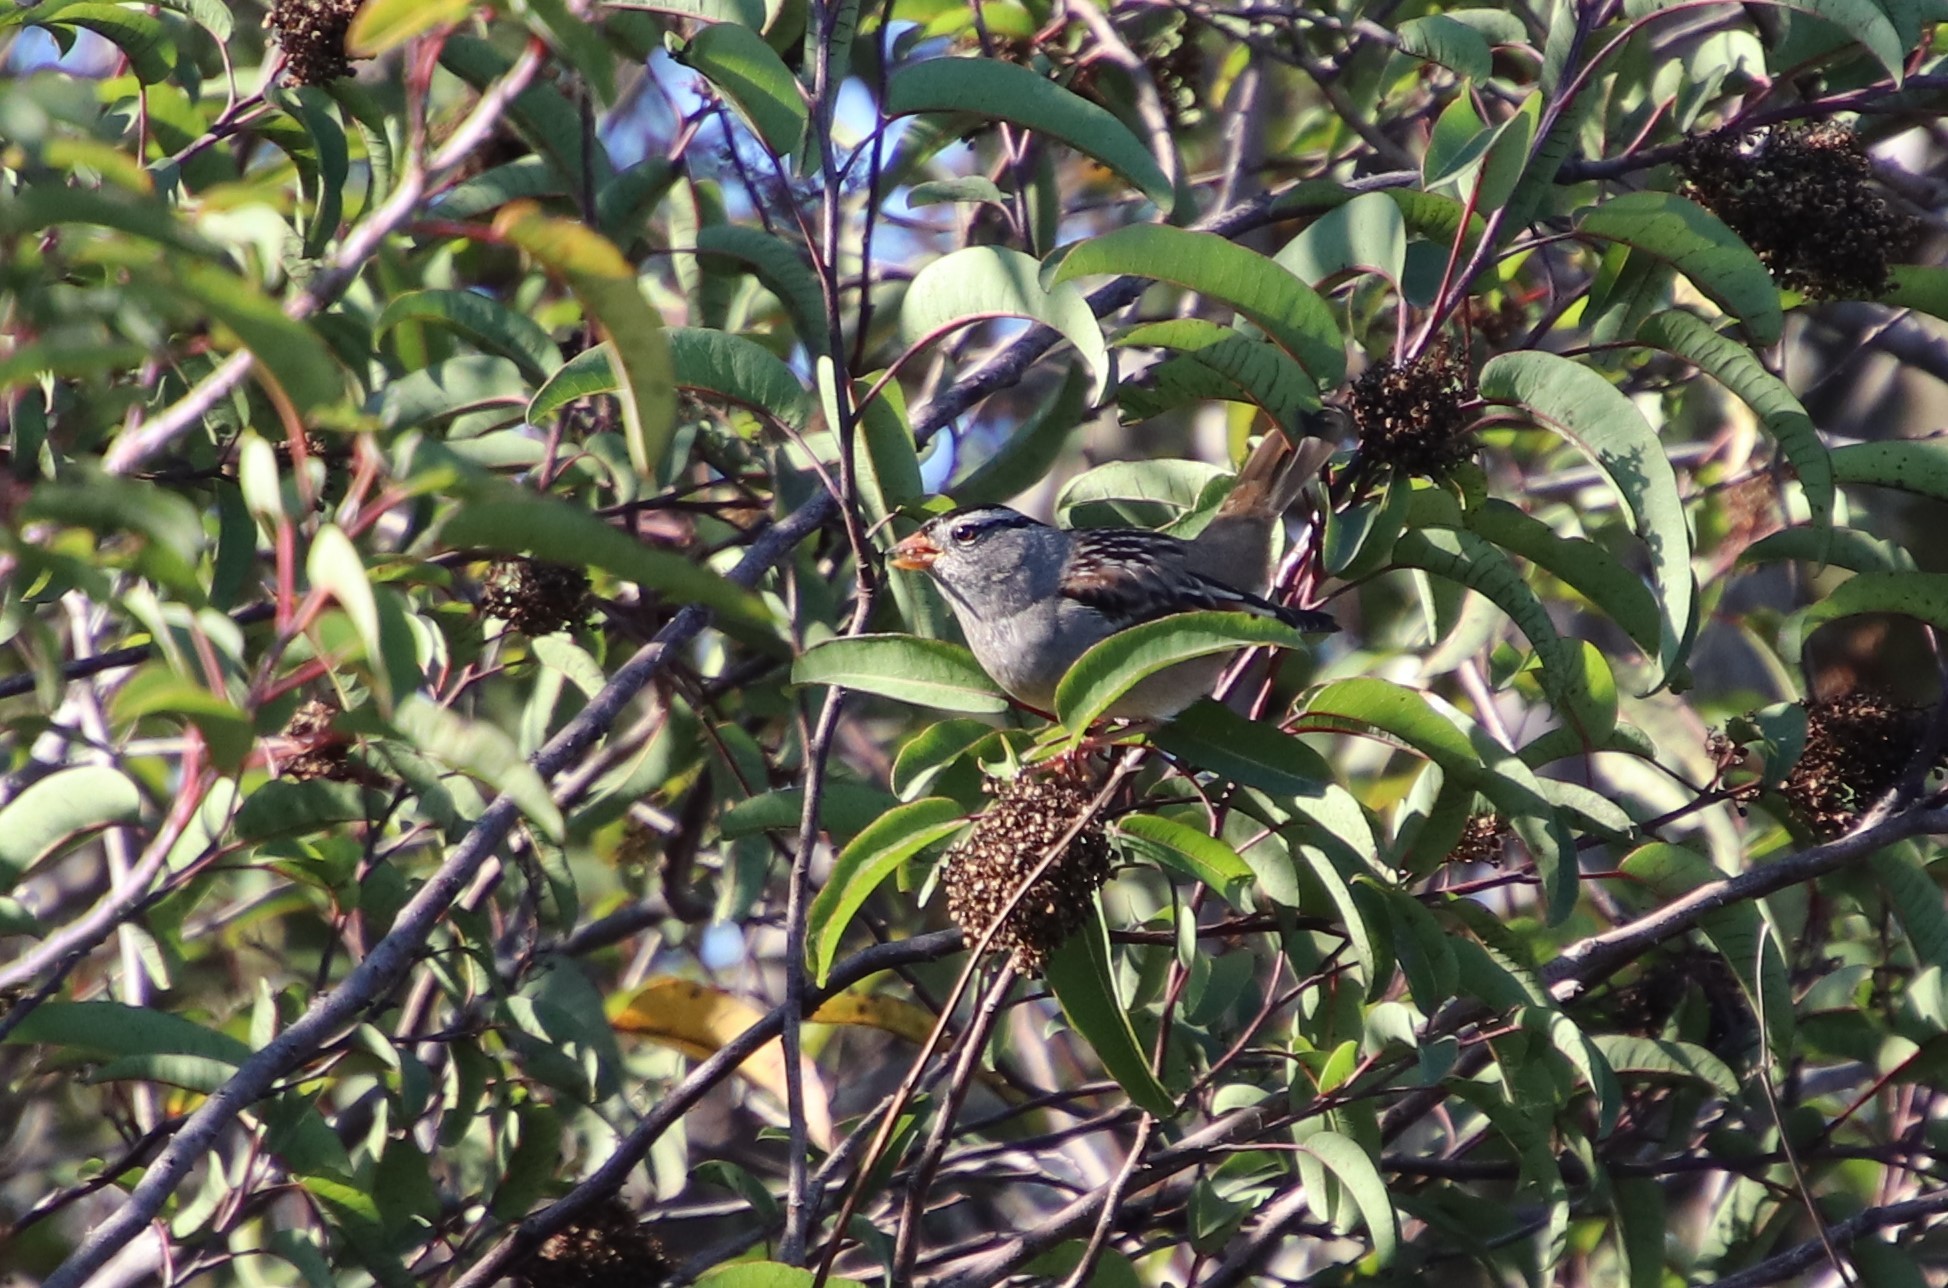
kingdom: Animalia
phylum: Chordata
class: Aves
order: Passeriformes
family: Passerellidae
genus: Zonotrichia
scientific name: Zonotrichia leucophrys
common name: White-crowned sparrow
